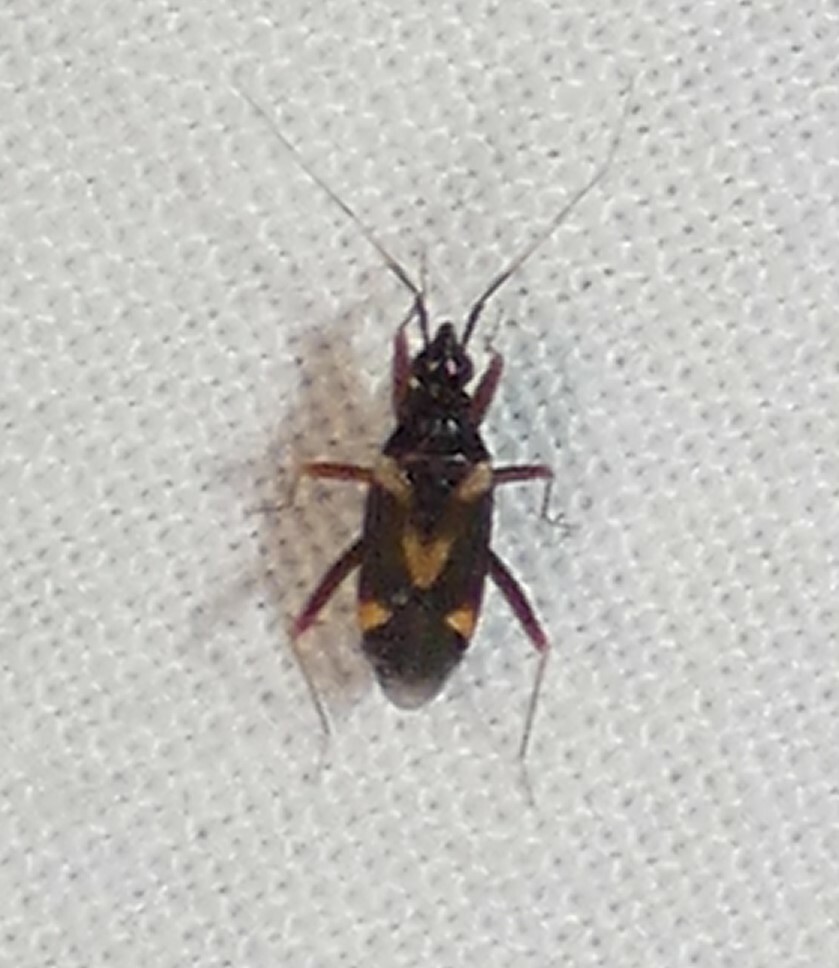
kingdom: Animalia
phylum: Arthropoda
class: Insecta
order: Hemiptera
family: Miridae
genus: Fulvius
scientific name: Fulvius subnitens
